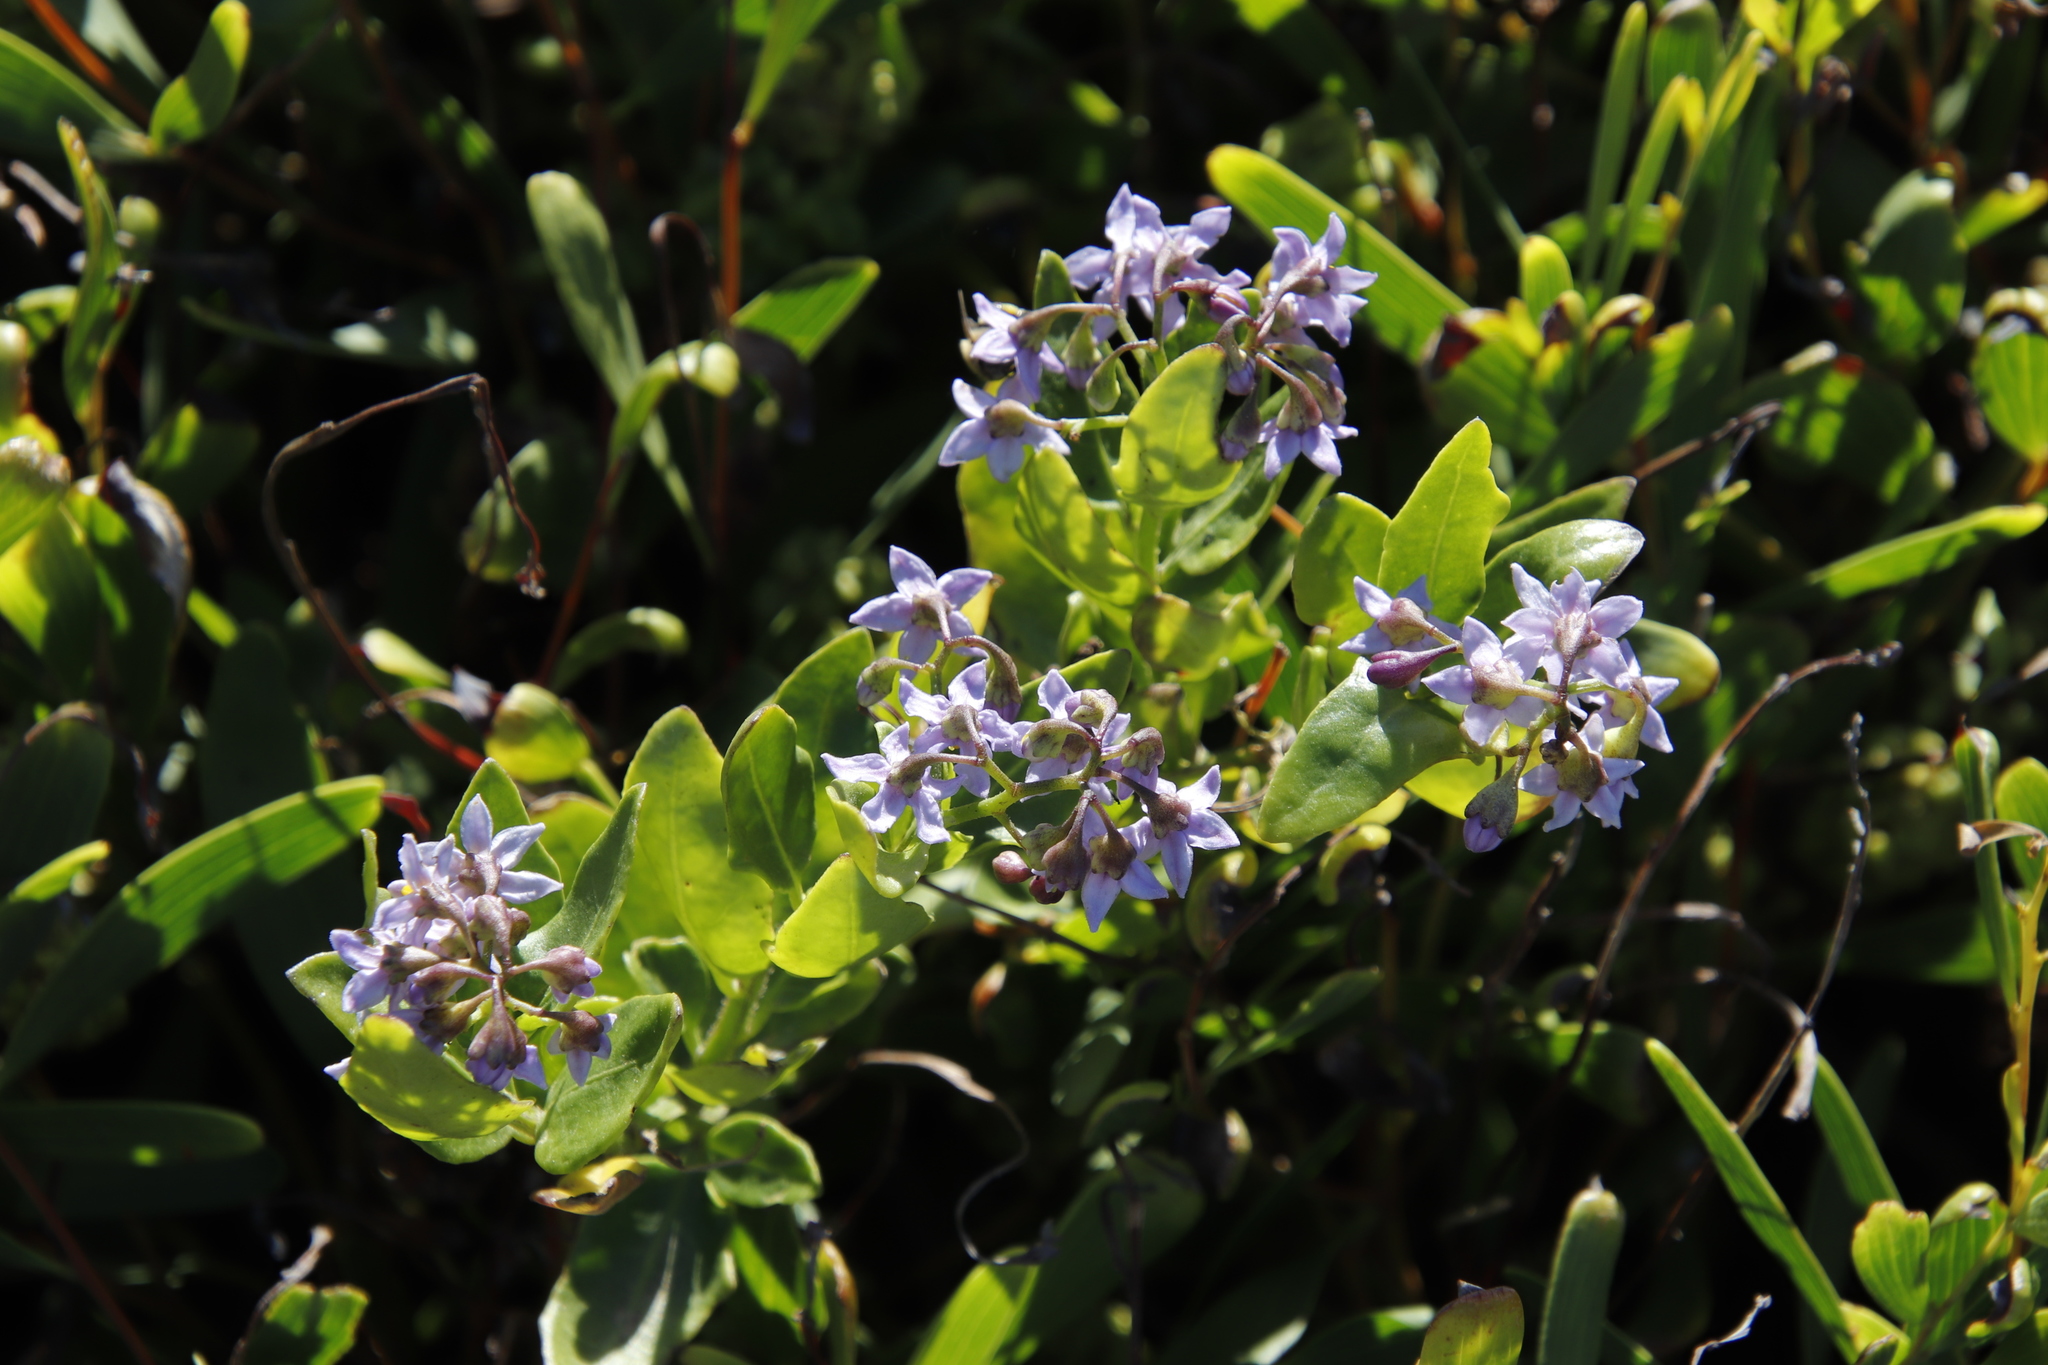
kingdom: Plantae
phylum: Tracheophyta
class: Magnoliopsida
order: Solanales
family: Solanaceae
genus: Solanum
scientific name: Solanum africanum
